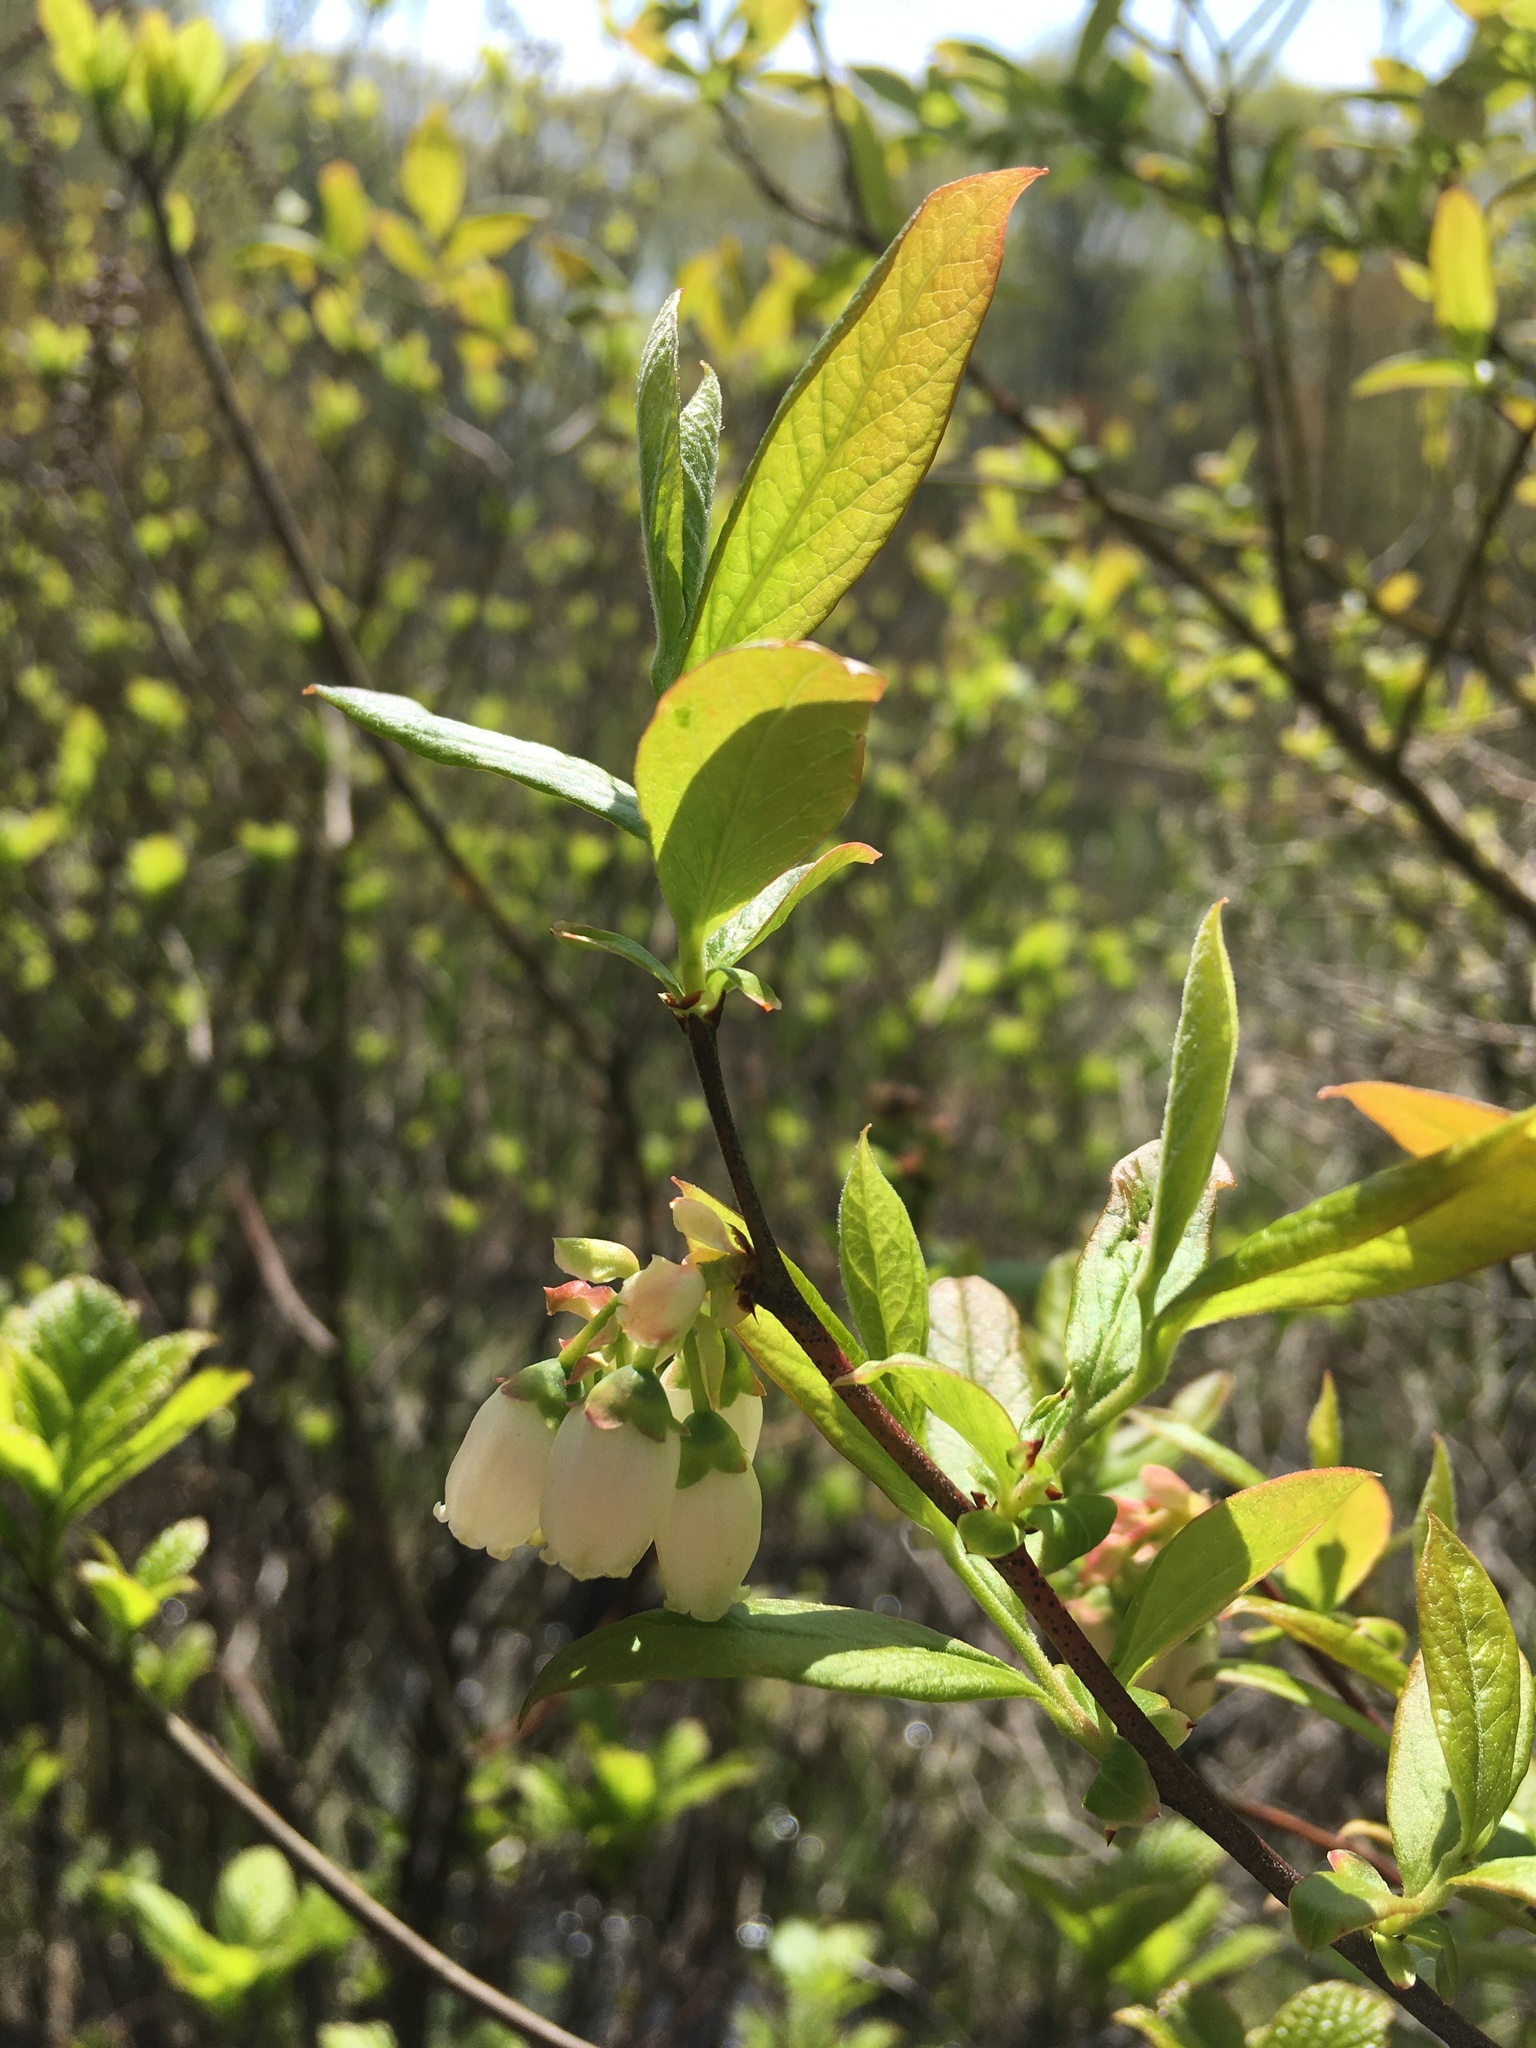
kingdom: Plantae
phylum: Tracheophyta
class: Magnoliopsida
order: Ericales
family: Ericaceae
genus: Vaccinium
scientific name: Vaccinium corymbosum
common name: Blueberry
